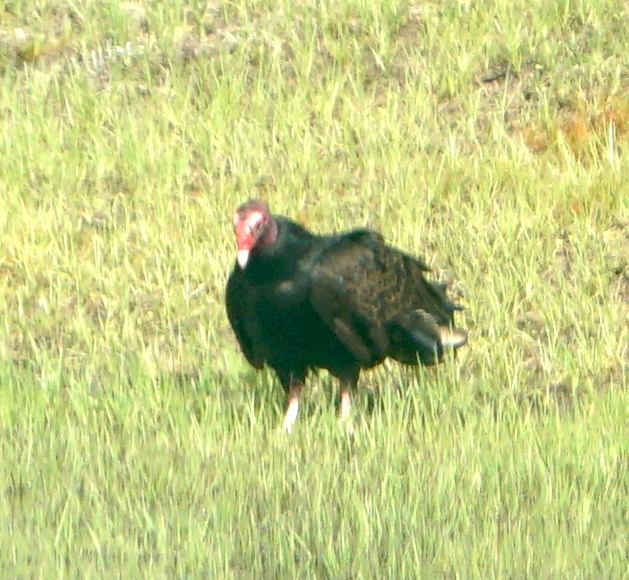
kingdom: Animalia
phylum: Chordata
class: Aves
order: Accipitriformes
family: Cathartidae
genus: Cathartes
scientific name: Cathartes aura
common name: Turkey vulture
